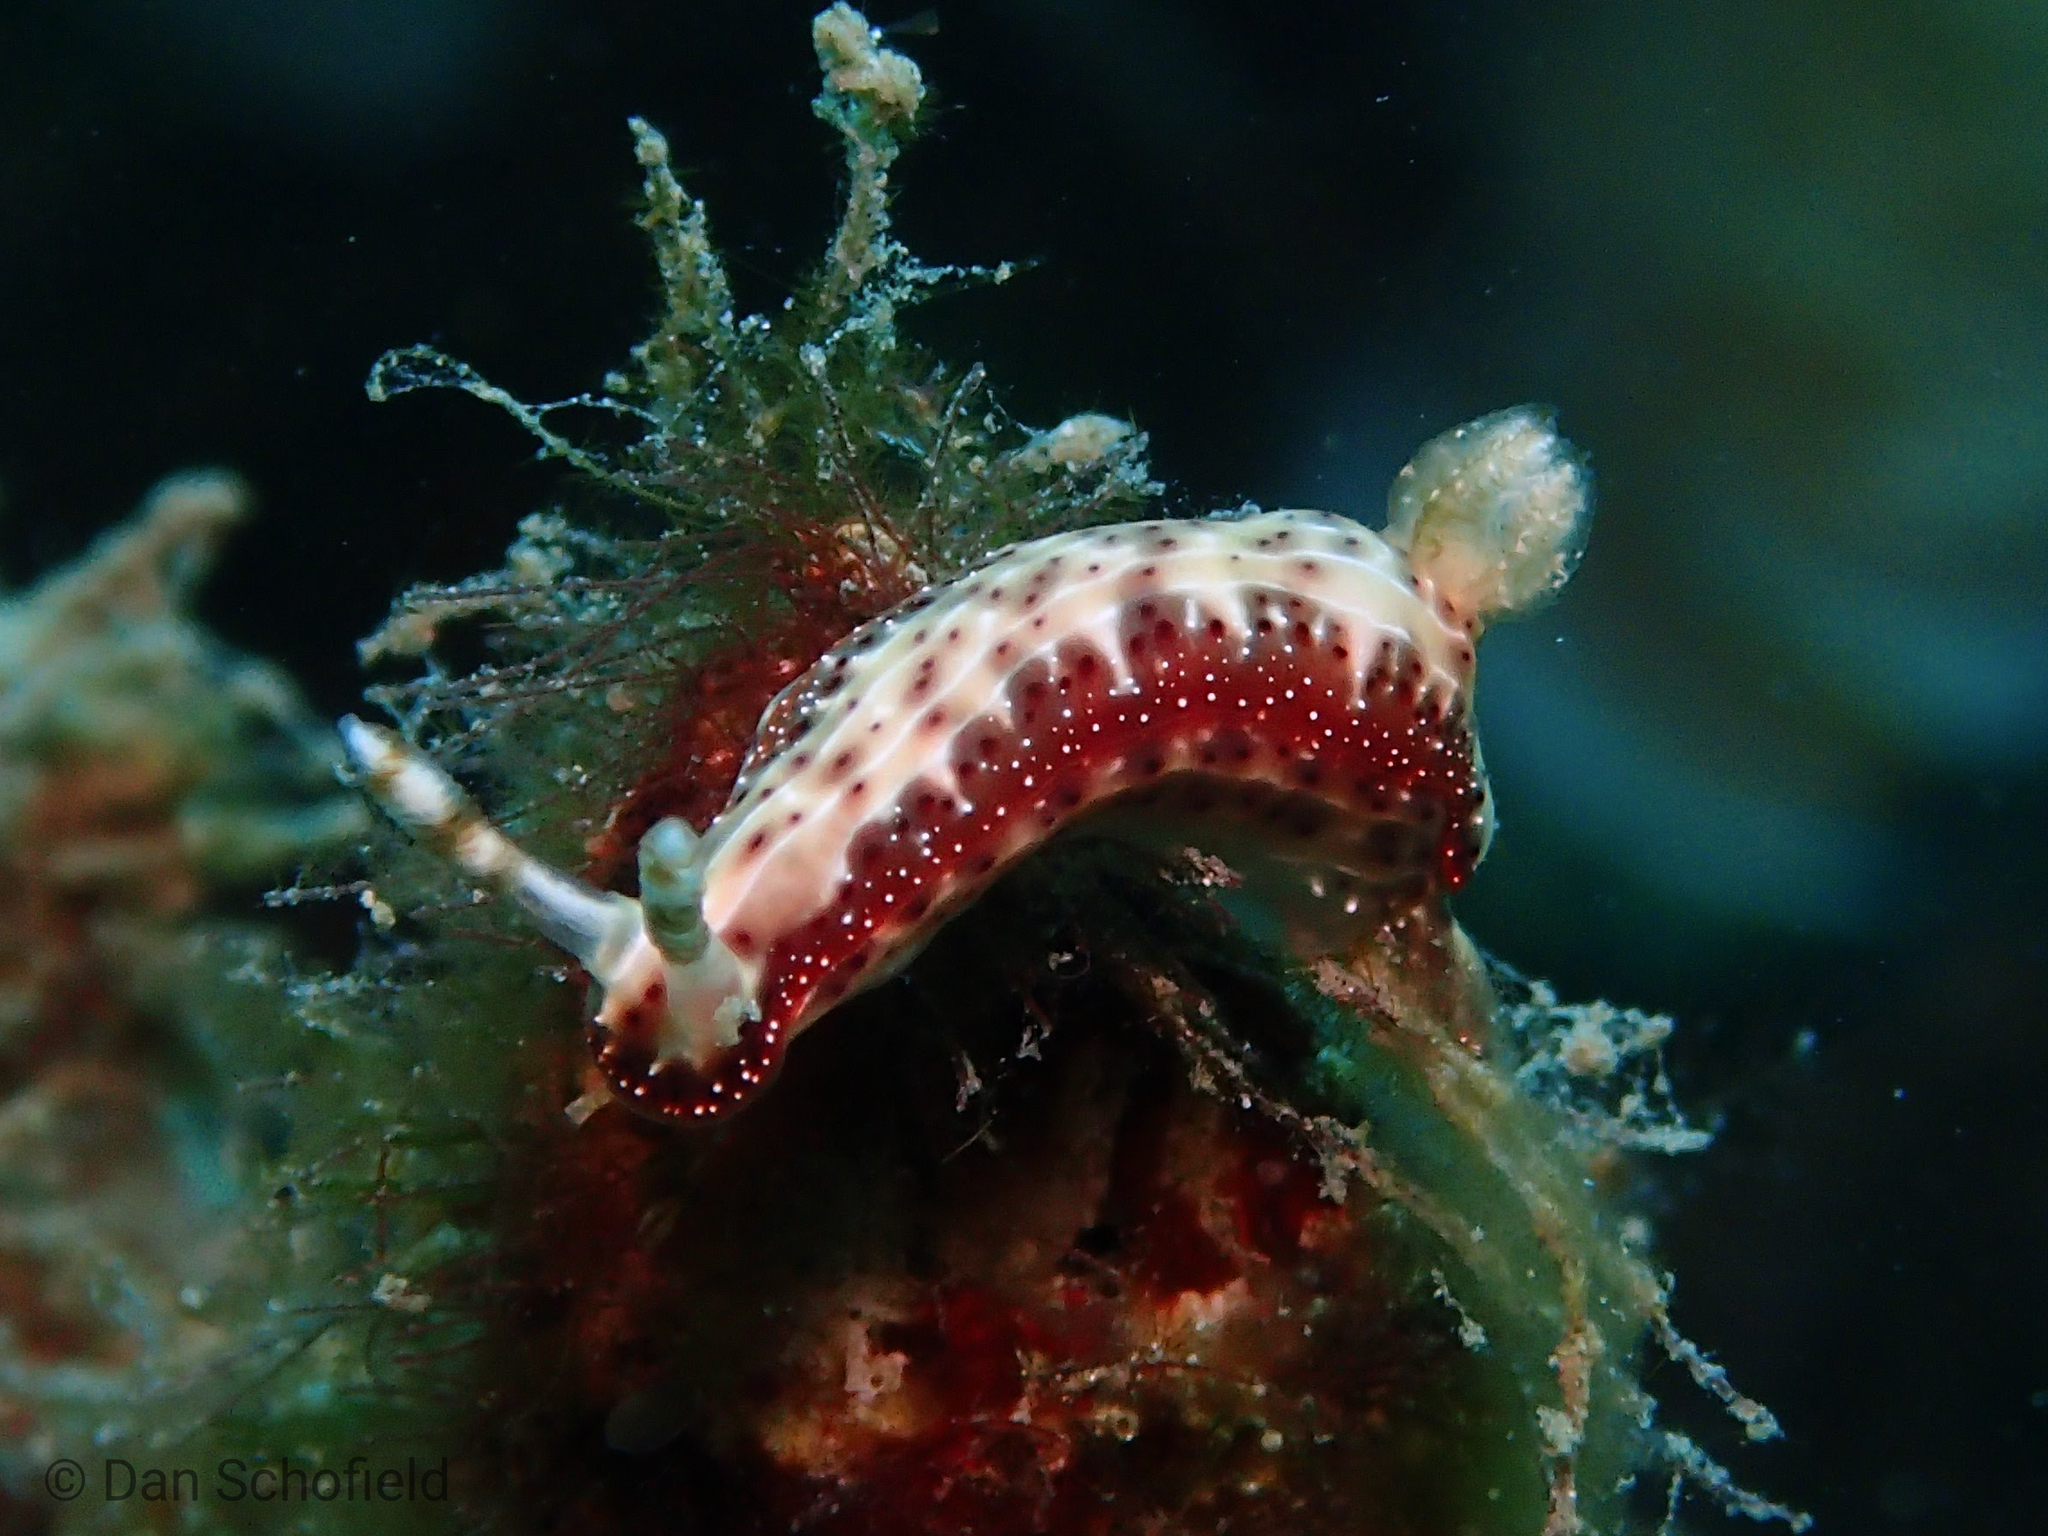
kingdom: Animalia
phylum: Mollusca
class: Gastropoda
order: Nudibranchia
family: Chromodorididae
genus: Hypselodoris
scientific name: Hypselodoris decorata
